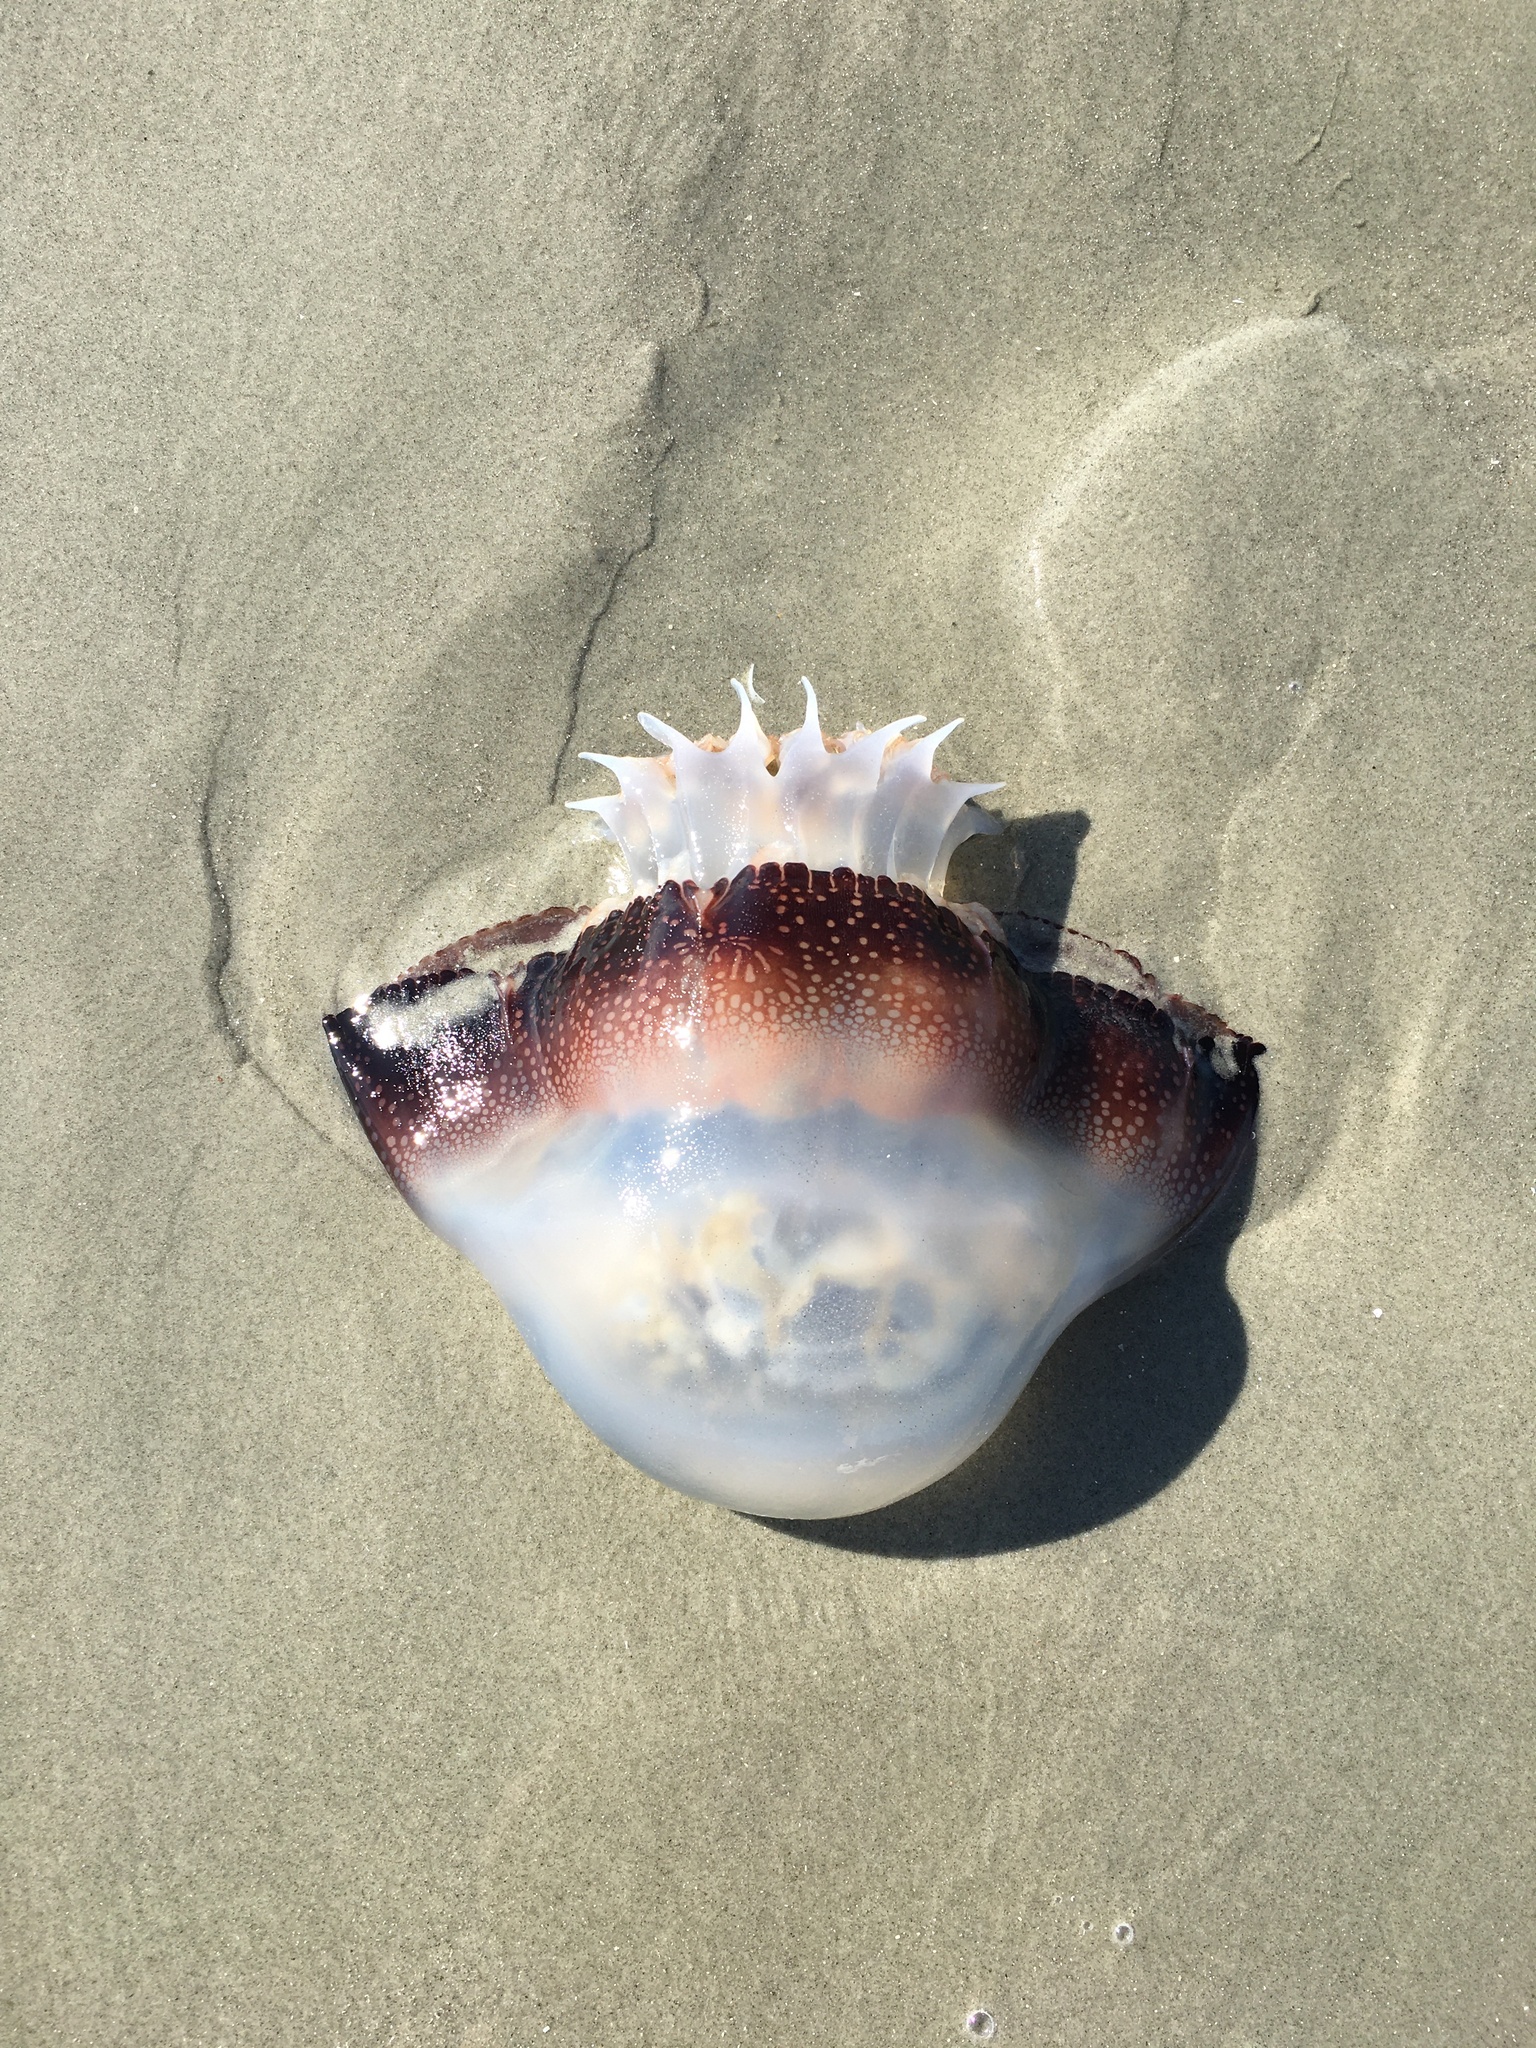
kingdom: Animalia
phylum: Cnidaria
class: Scyphozoa
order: Rhizostomeae
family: Stomolophidae
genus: Stomolophus
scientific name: Stomolophus meleagris
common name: Cabbagehead
